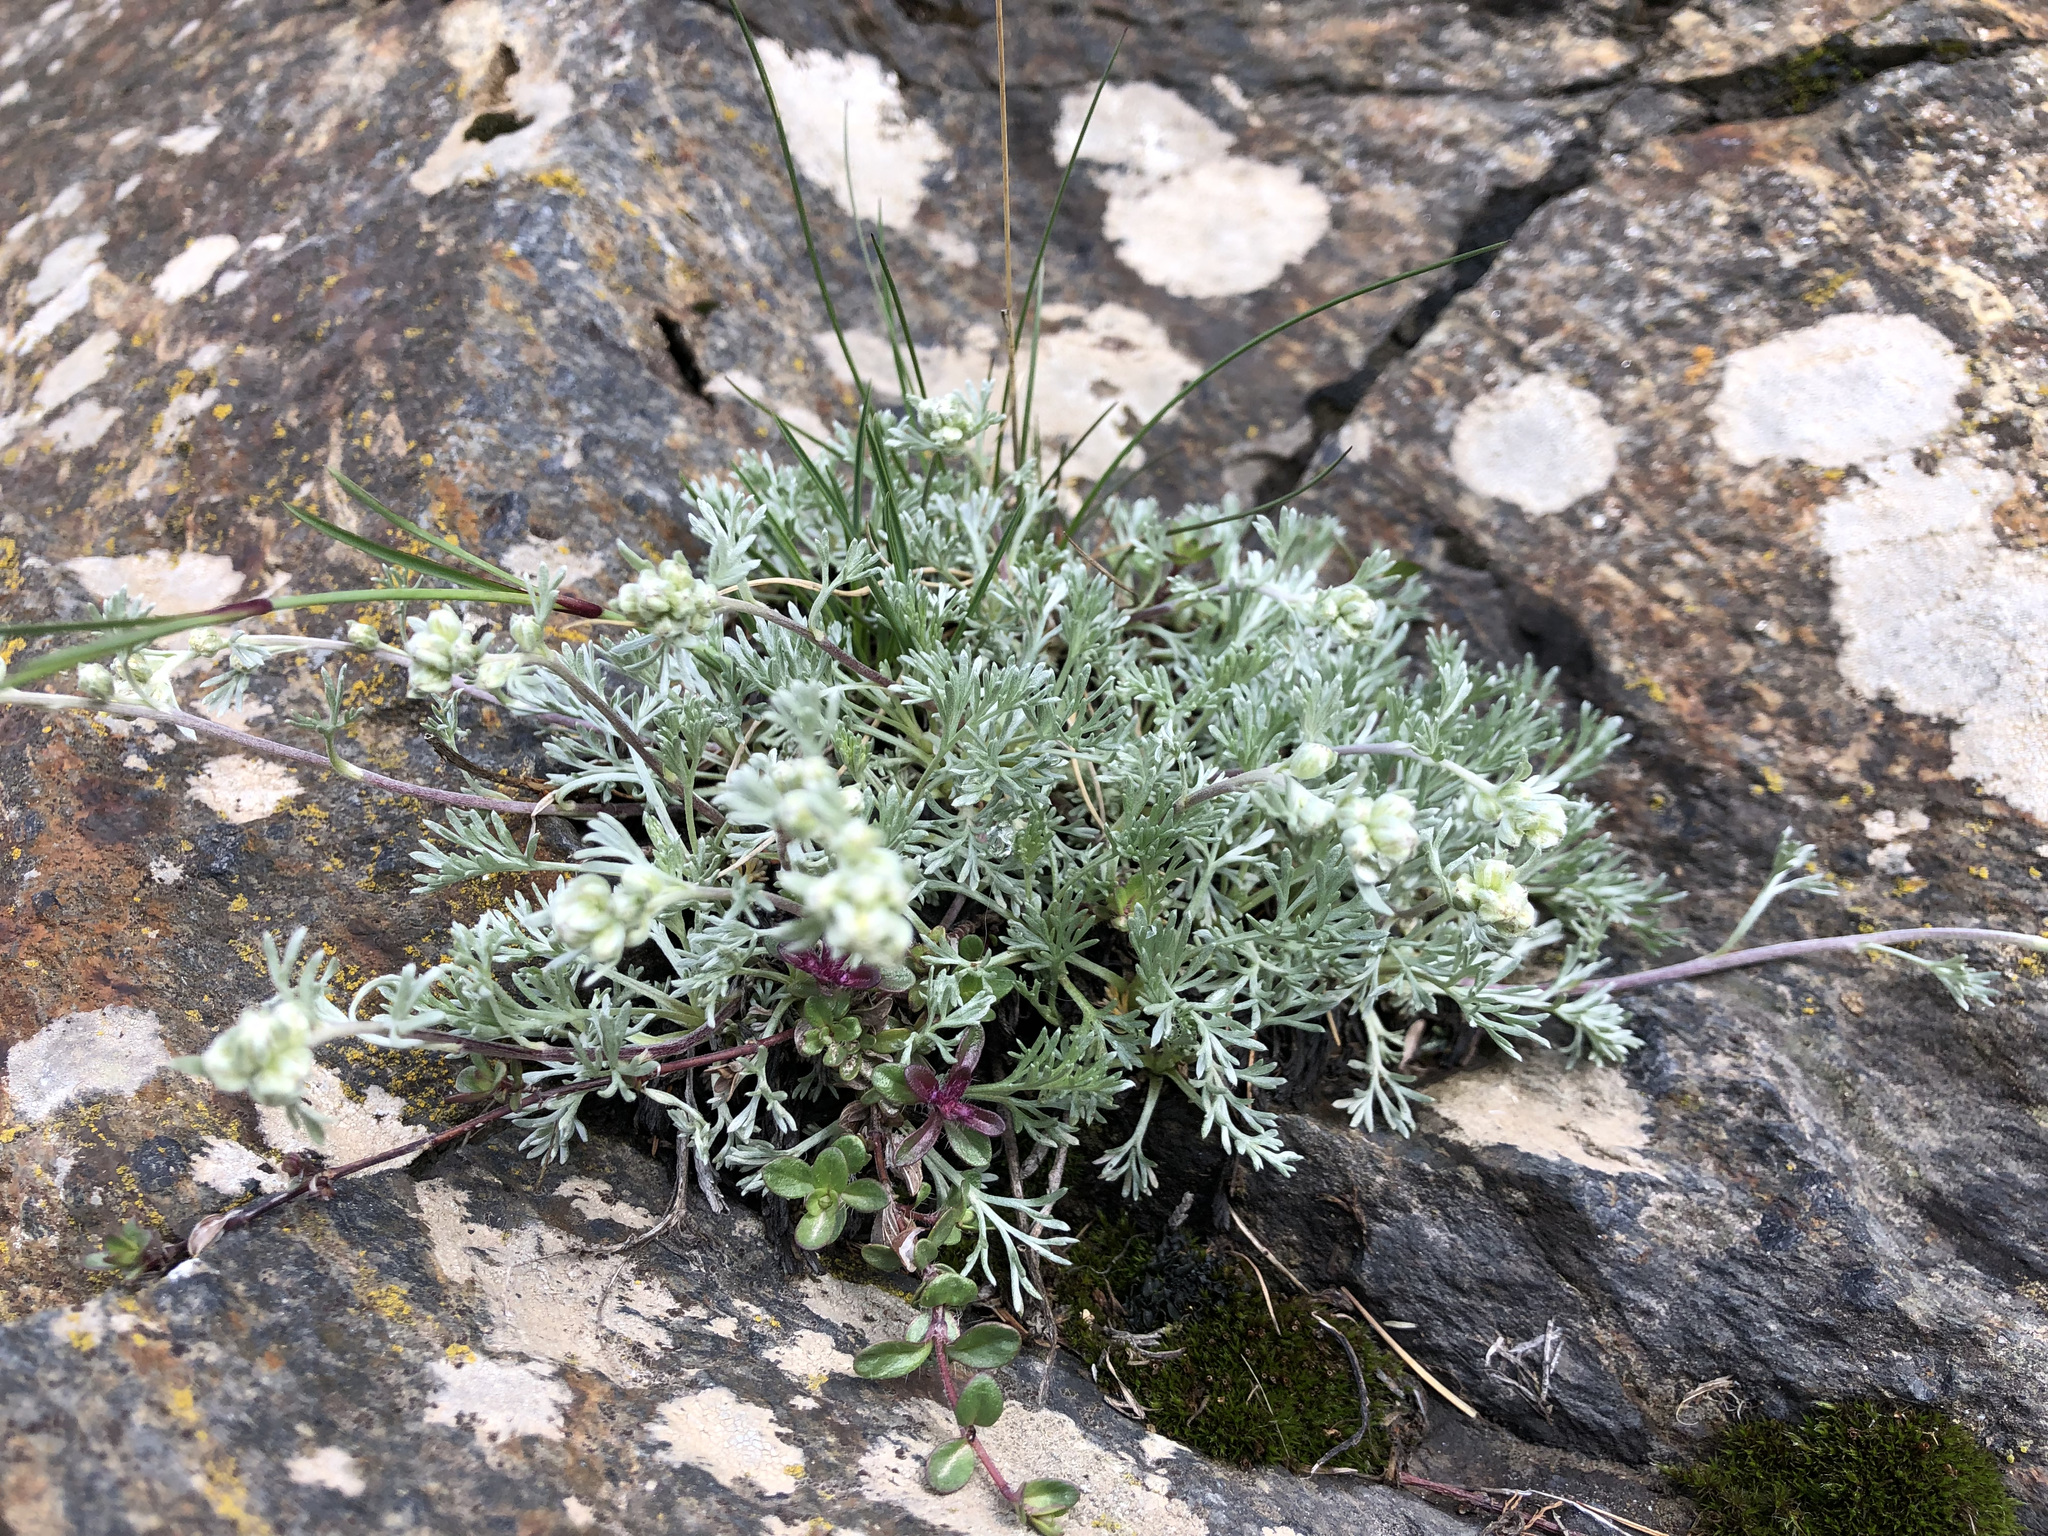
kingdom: Plantae
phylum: Tracheophyta
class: Magnoliopsida
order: Asterales
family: Asteraceae
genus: Artemisia
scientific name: Artemisia umbelliformis
